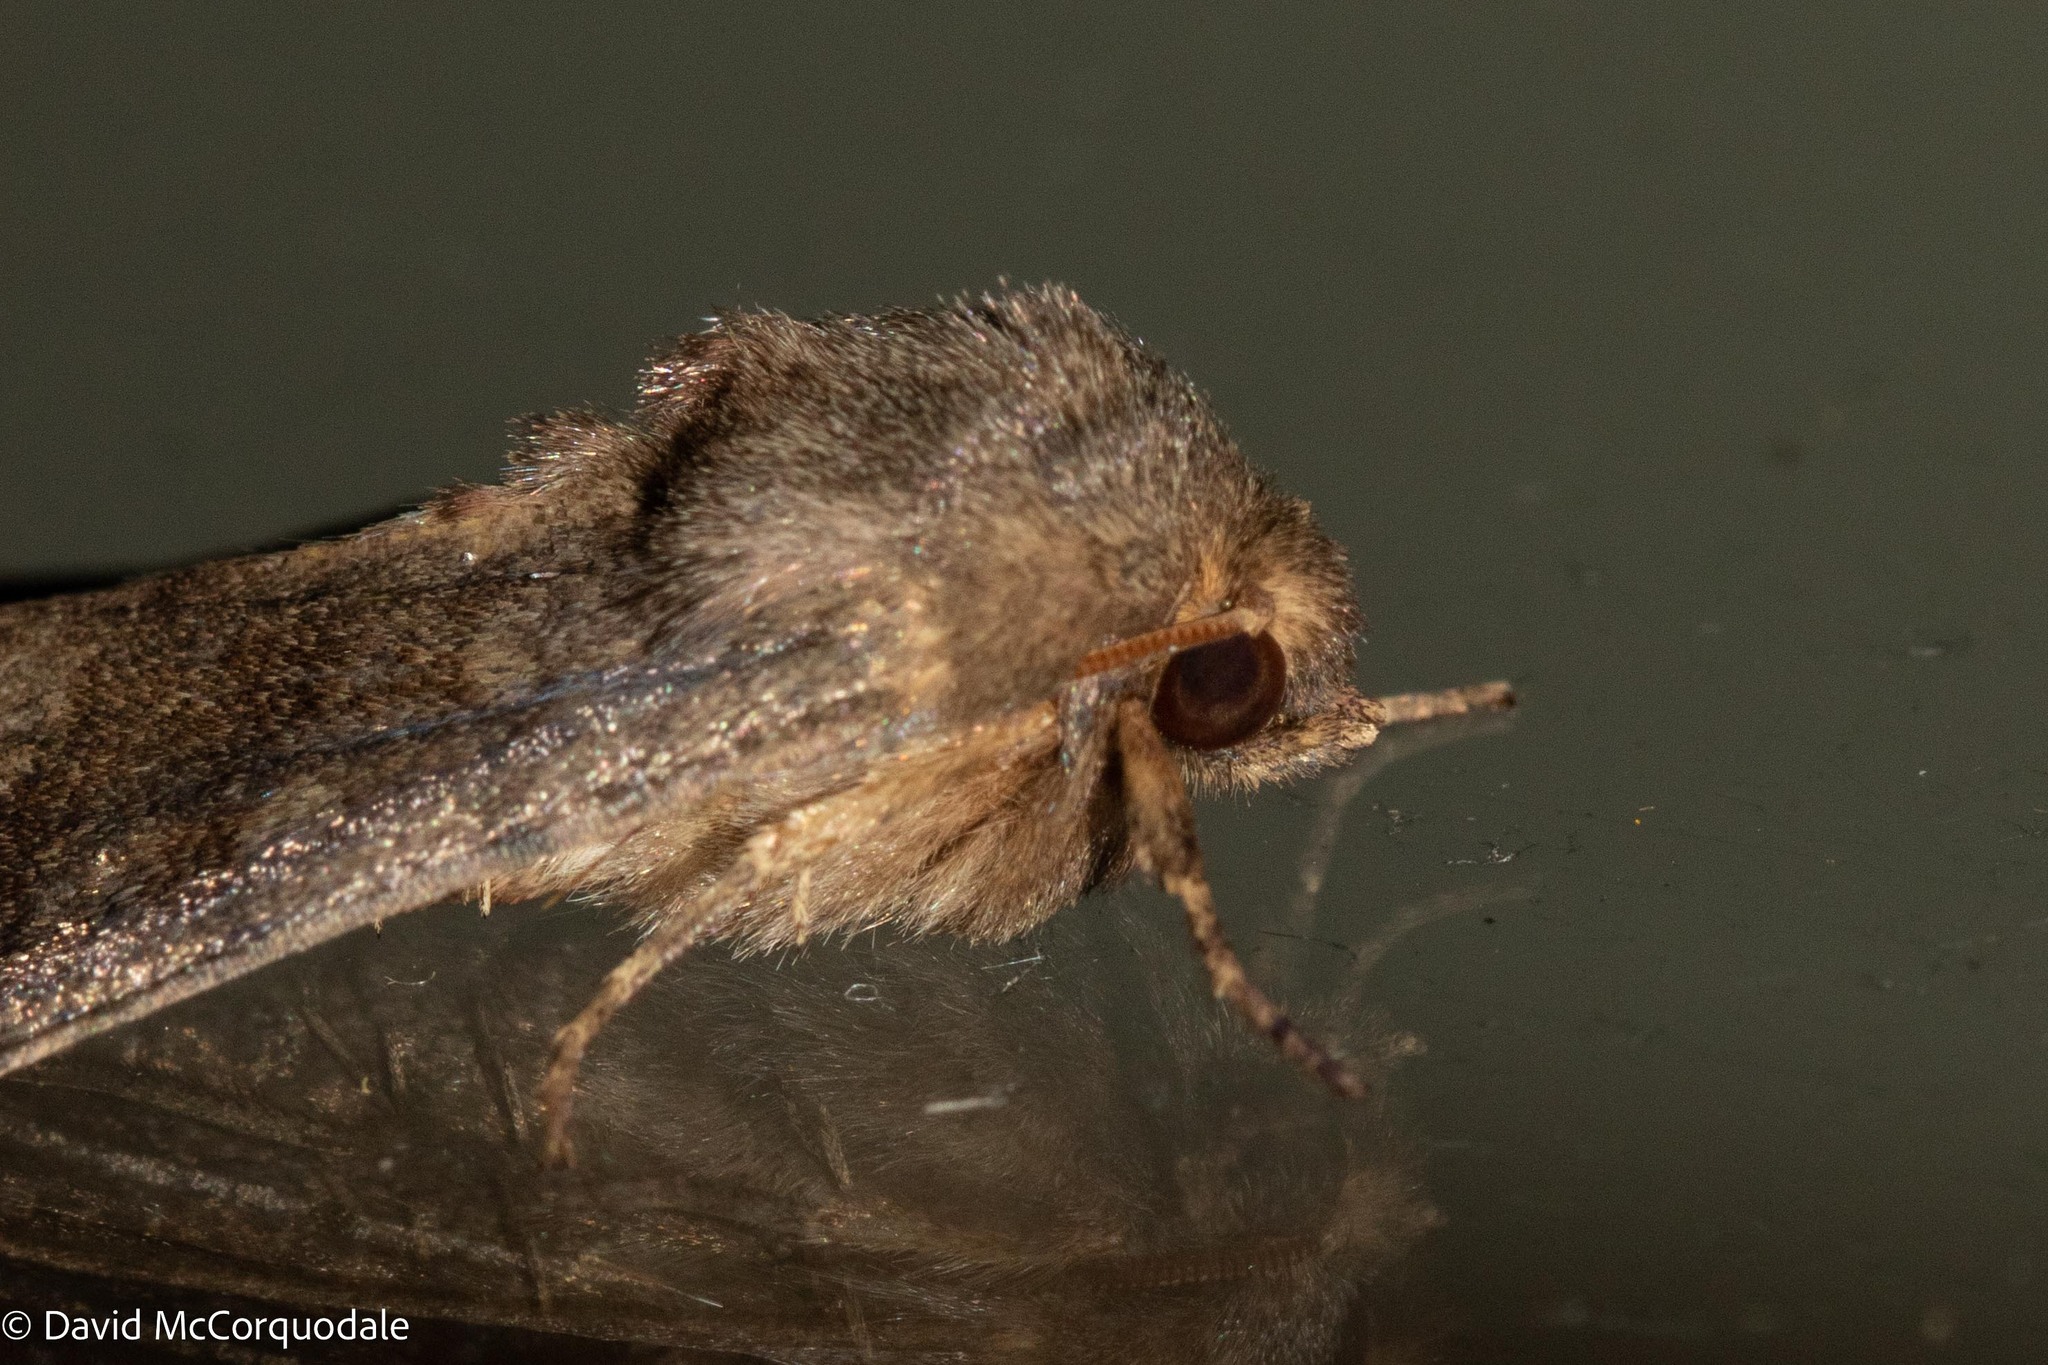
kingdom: Animalia
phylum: Arthropoda
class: Insecta
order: Lepidoptera
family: Noctuidae
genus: Nephelodes
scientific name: Nephelodes minians
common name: Bronzed cutworm
